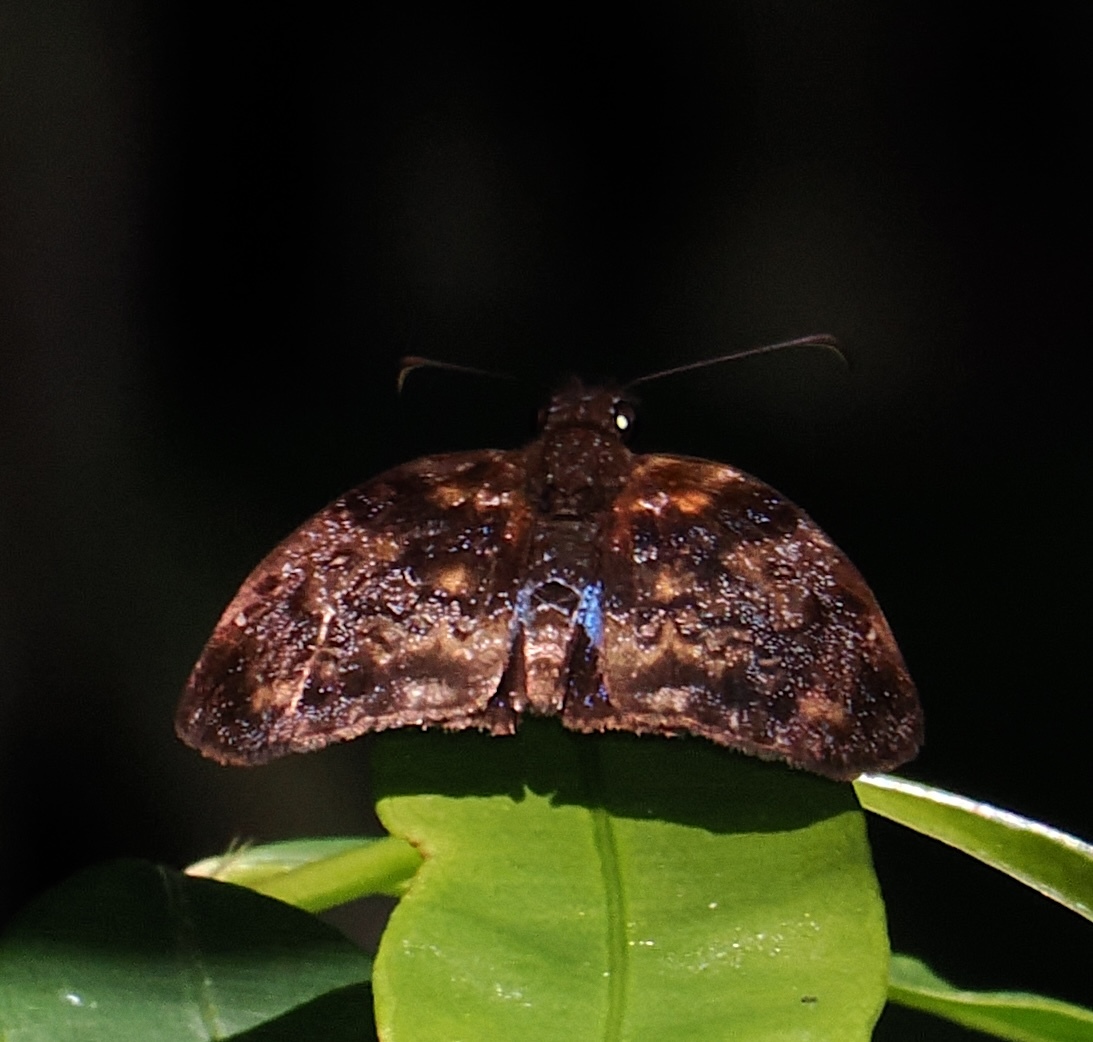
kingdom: Animalia
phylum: Arthropoda
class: Insecta
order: Lepidoptera
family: Hesperiidae
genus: Sostrata
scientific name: Sostrata
